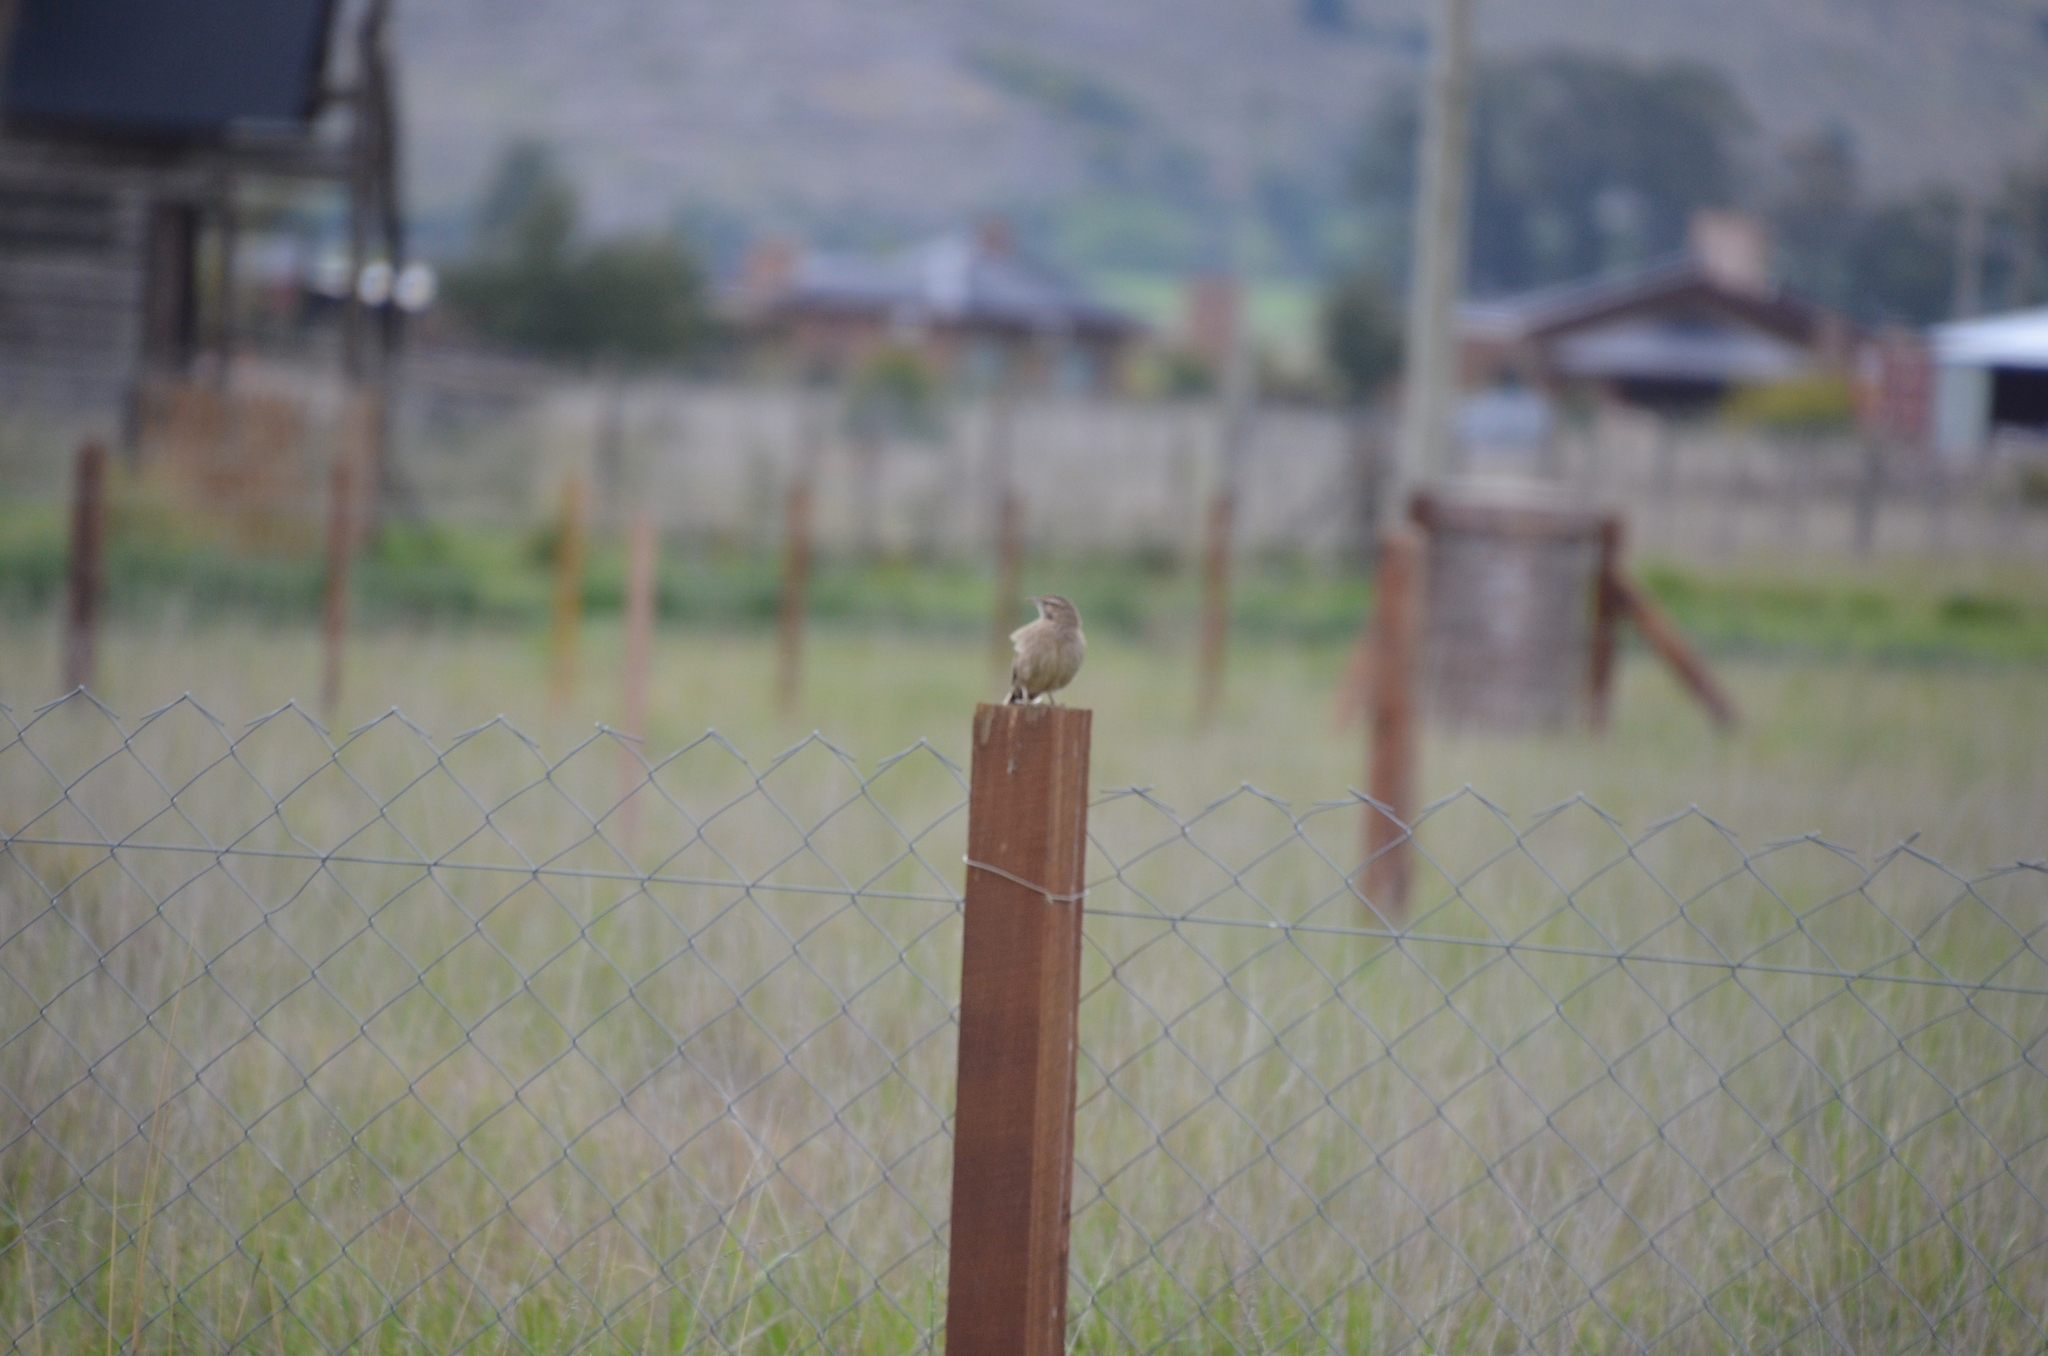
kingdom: Animalia
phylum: Chordata
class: Aves
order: Passeriformes
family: Furnariidae
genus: Anumbius
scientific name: Anumbius annumbi
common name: Firewood-gatherer
